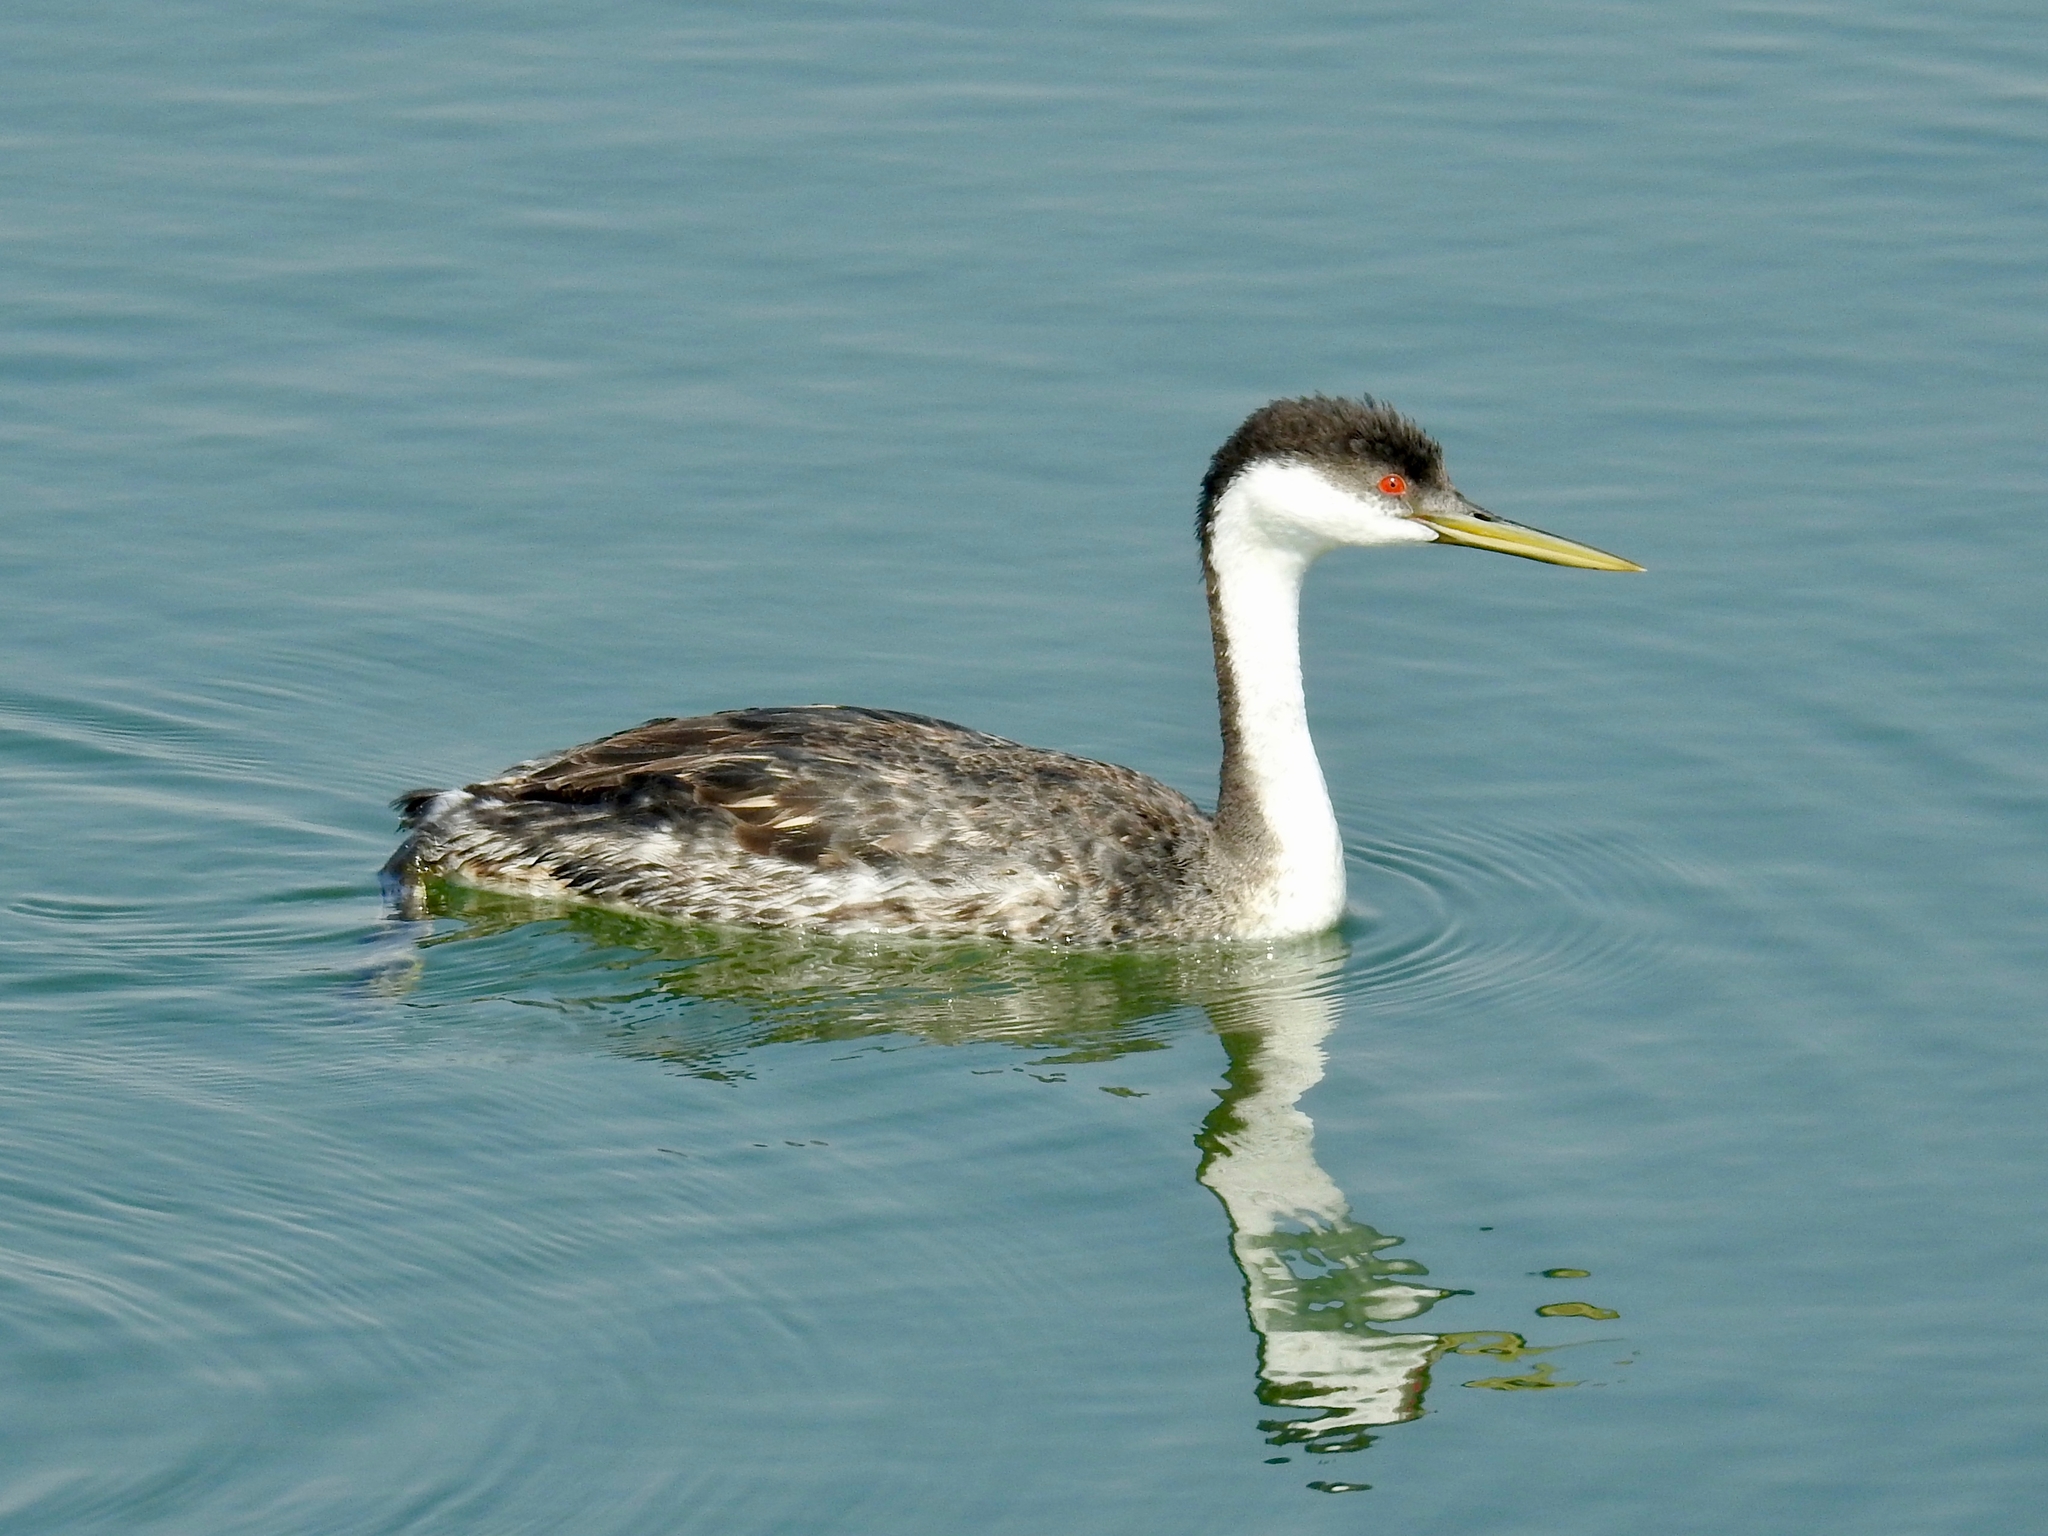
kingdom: Animalia
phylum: Chordata
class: Aves
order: Podicipediformes
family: Podicipedidae
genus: Aechmophorus
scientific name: Aechmophorus occidentalis
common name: Western grebe
